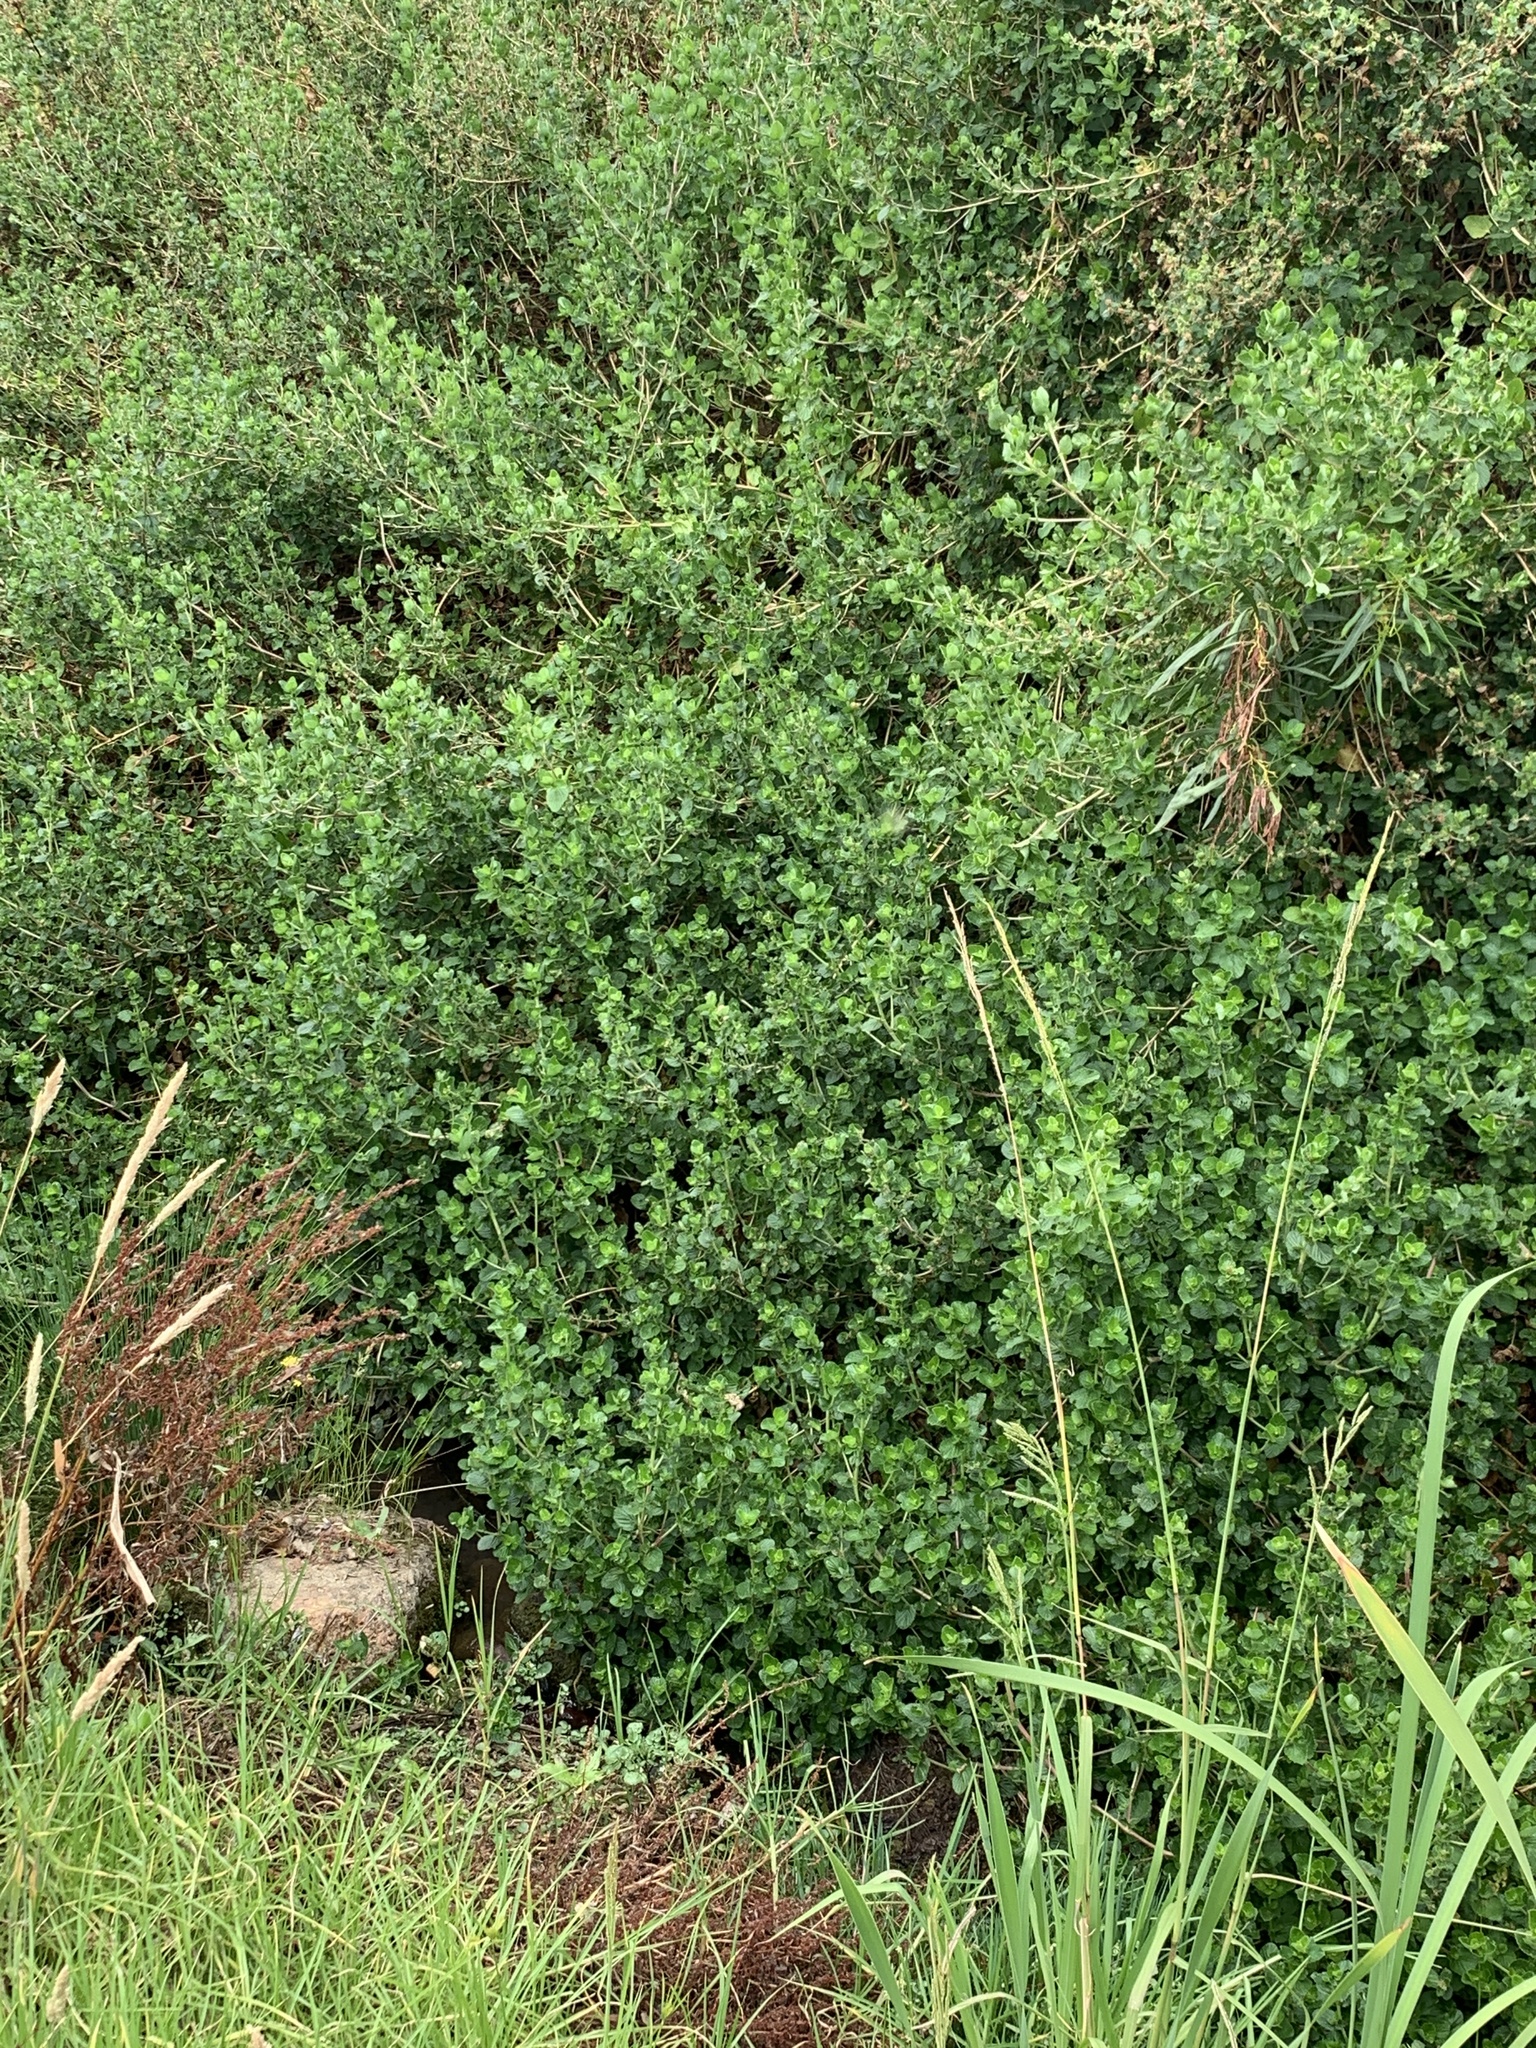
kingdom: Plantae
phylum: Tracheophyta
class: Magnoliopsida
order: Rosales
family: Rosaceae
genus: Cliffortia
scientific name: Cliffortia odorata
